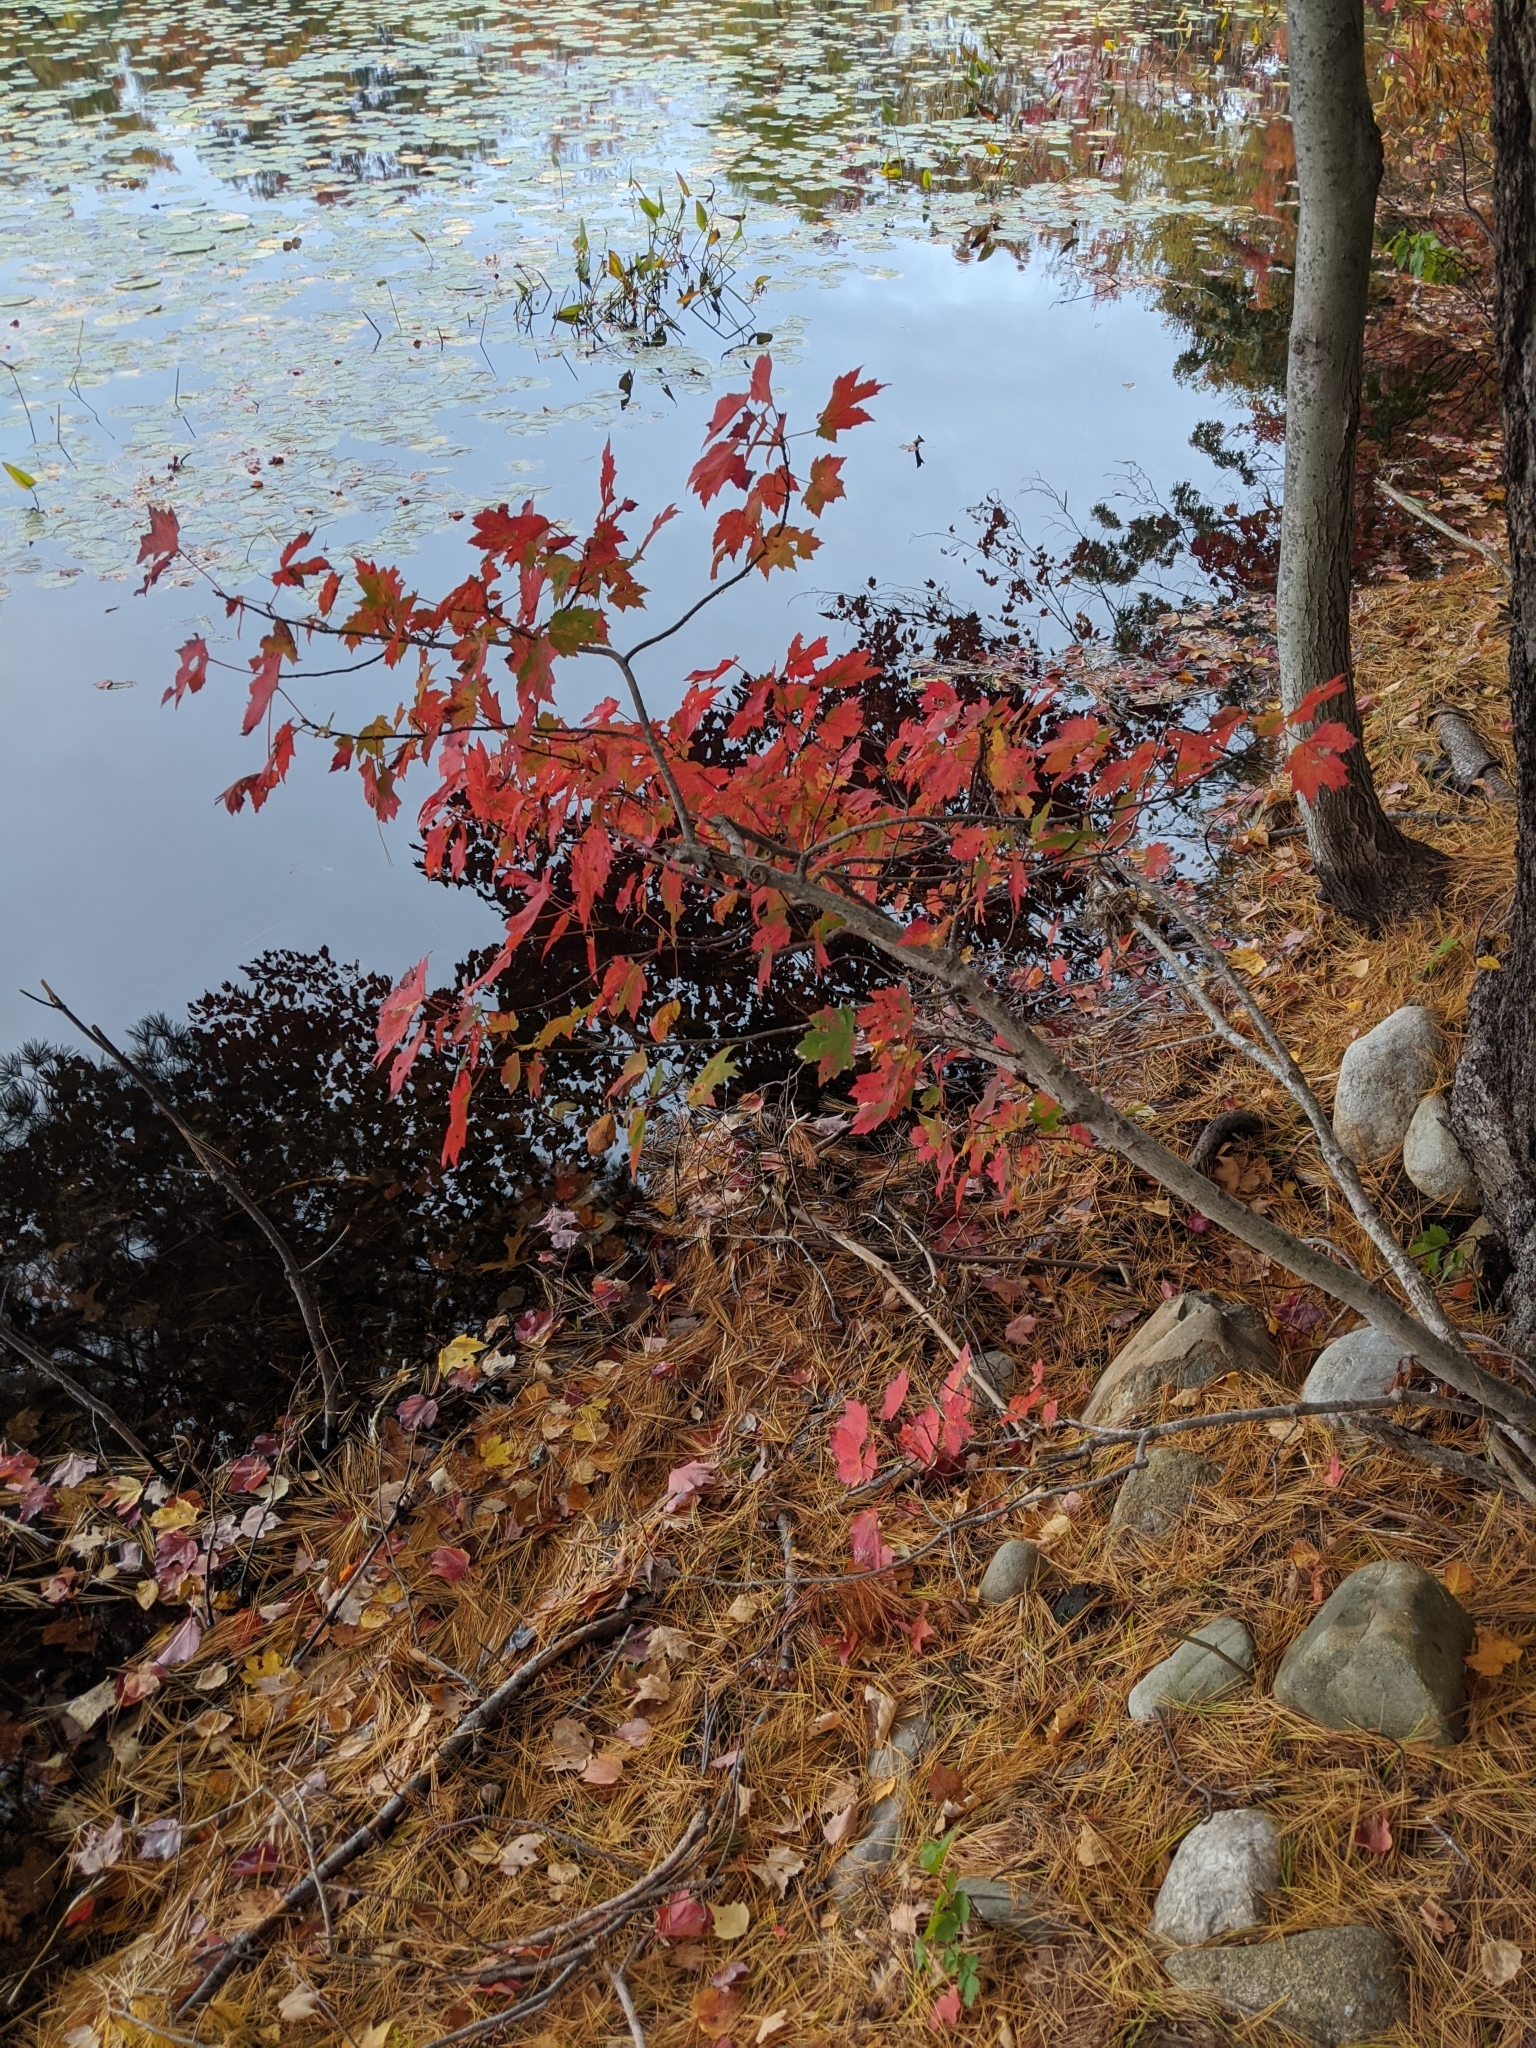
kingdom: Plantae
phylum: Tracheophyta
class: Magnoliopsida
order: Sapindales
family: Sapindaceae
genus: Acer
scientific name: Acer rubrum
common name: Red maple
